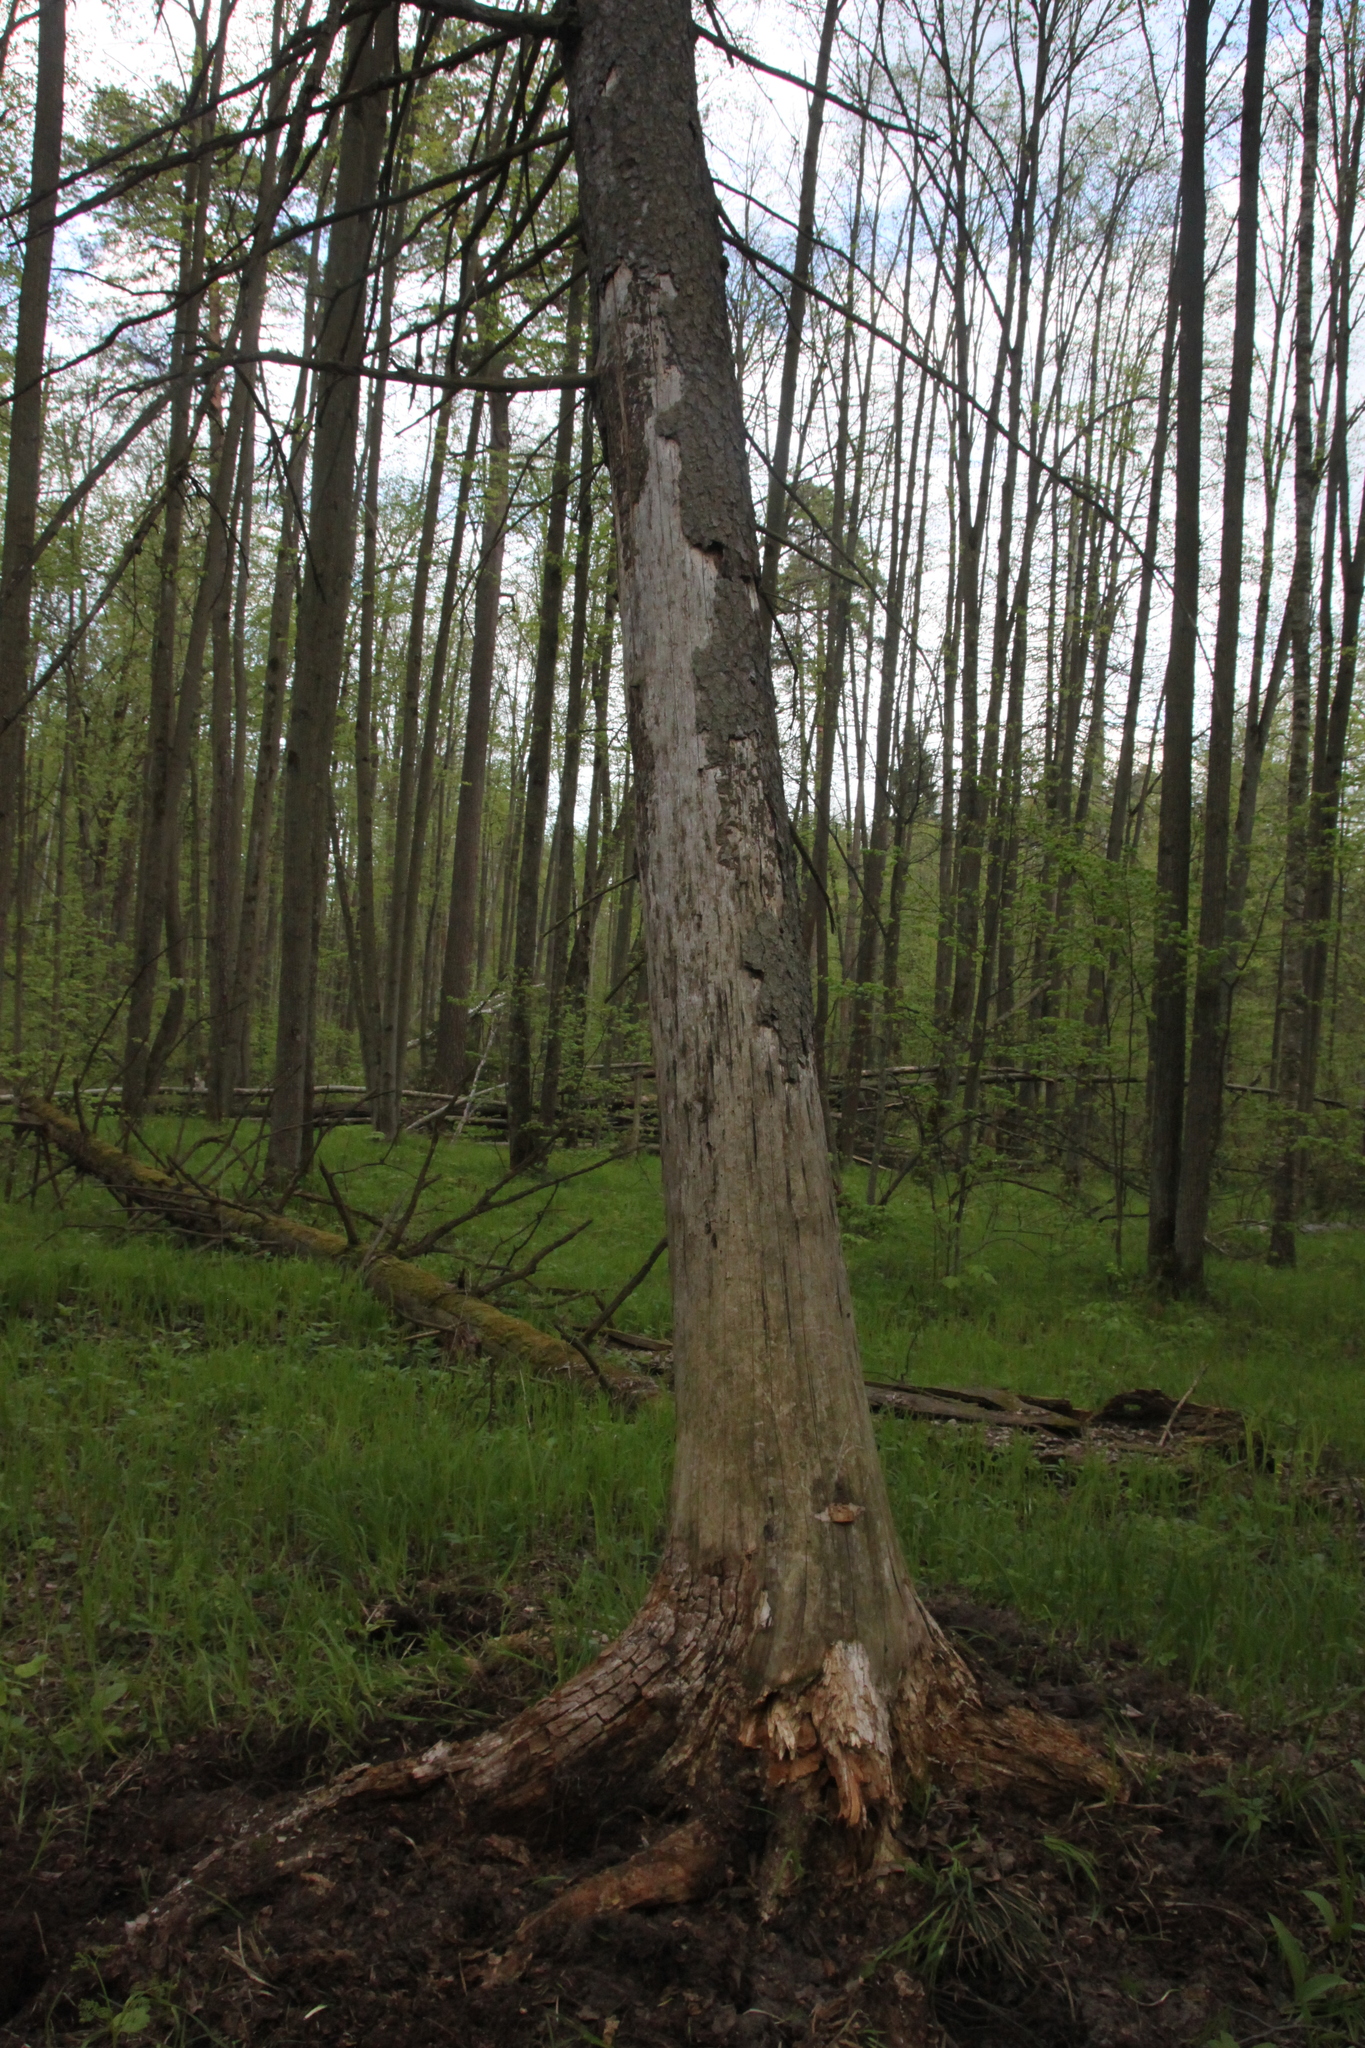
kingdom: Plantae
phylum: Tracheophyta
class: Pinopsida
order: Pinales
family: Pinaceae
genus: Picea
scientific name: Picea abies
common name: Norway spruce
